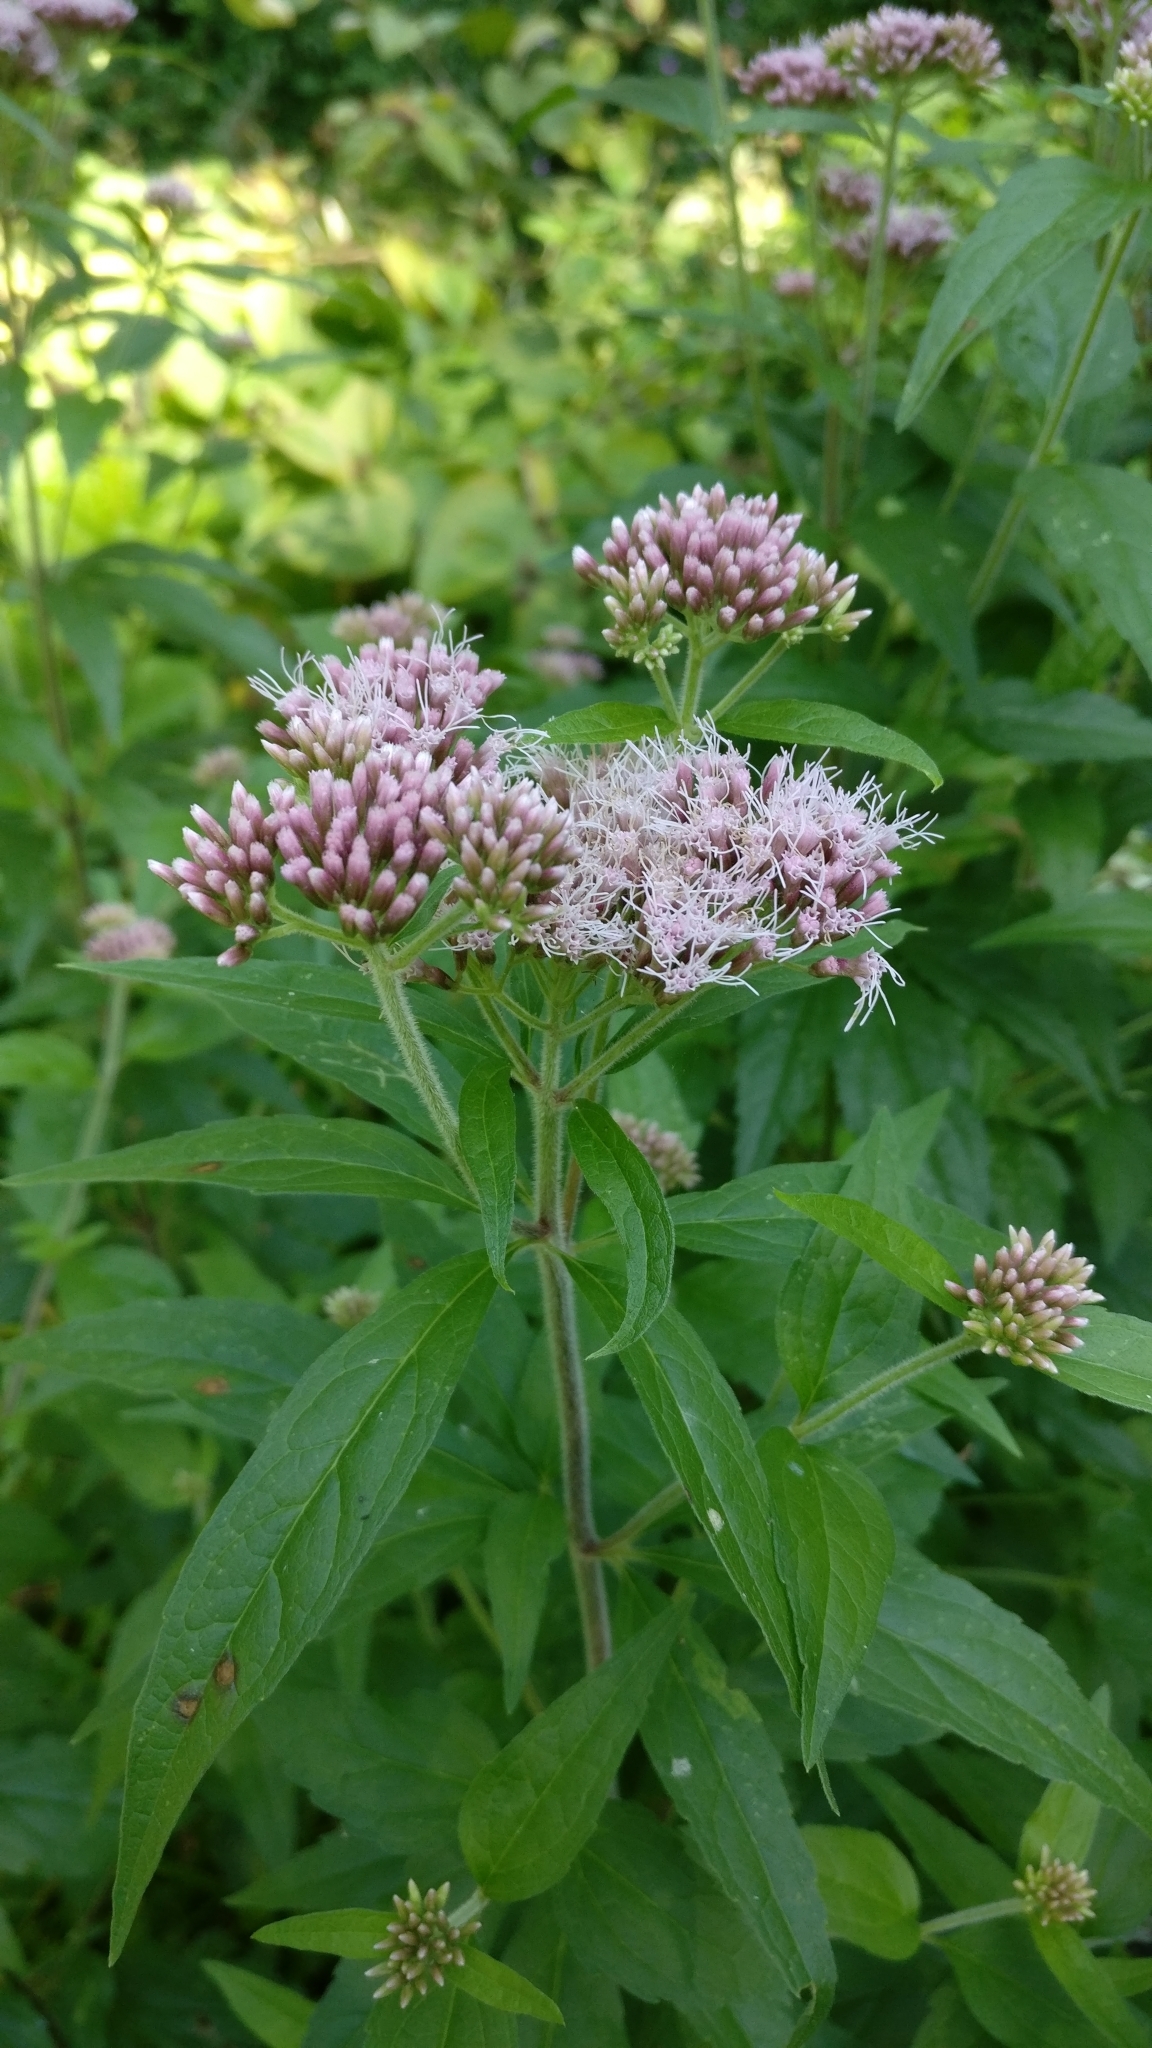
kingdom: Plantae
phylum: Tracheophyta
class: Magnoliopsida
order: Asterales
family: Asteraceae
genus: Eupatorium
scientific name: Eupatorium cannabinum
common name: Hemp-agrimony
